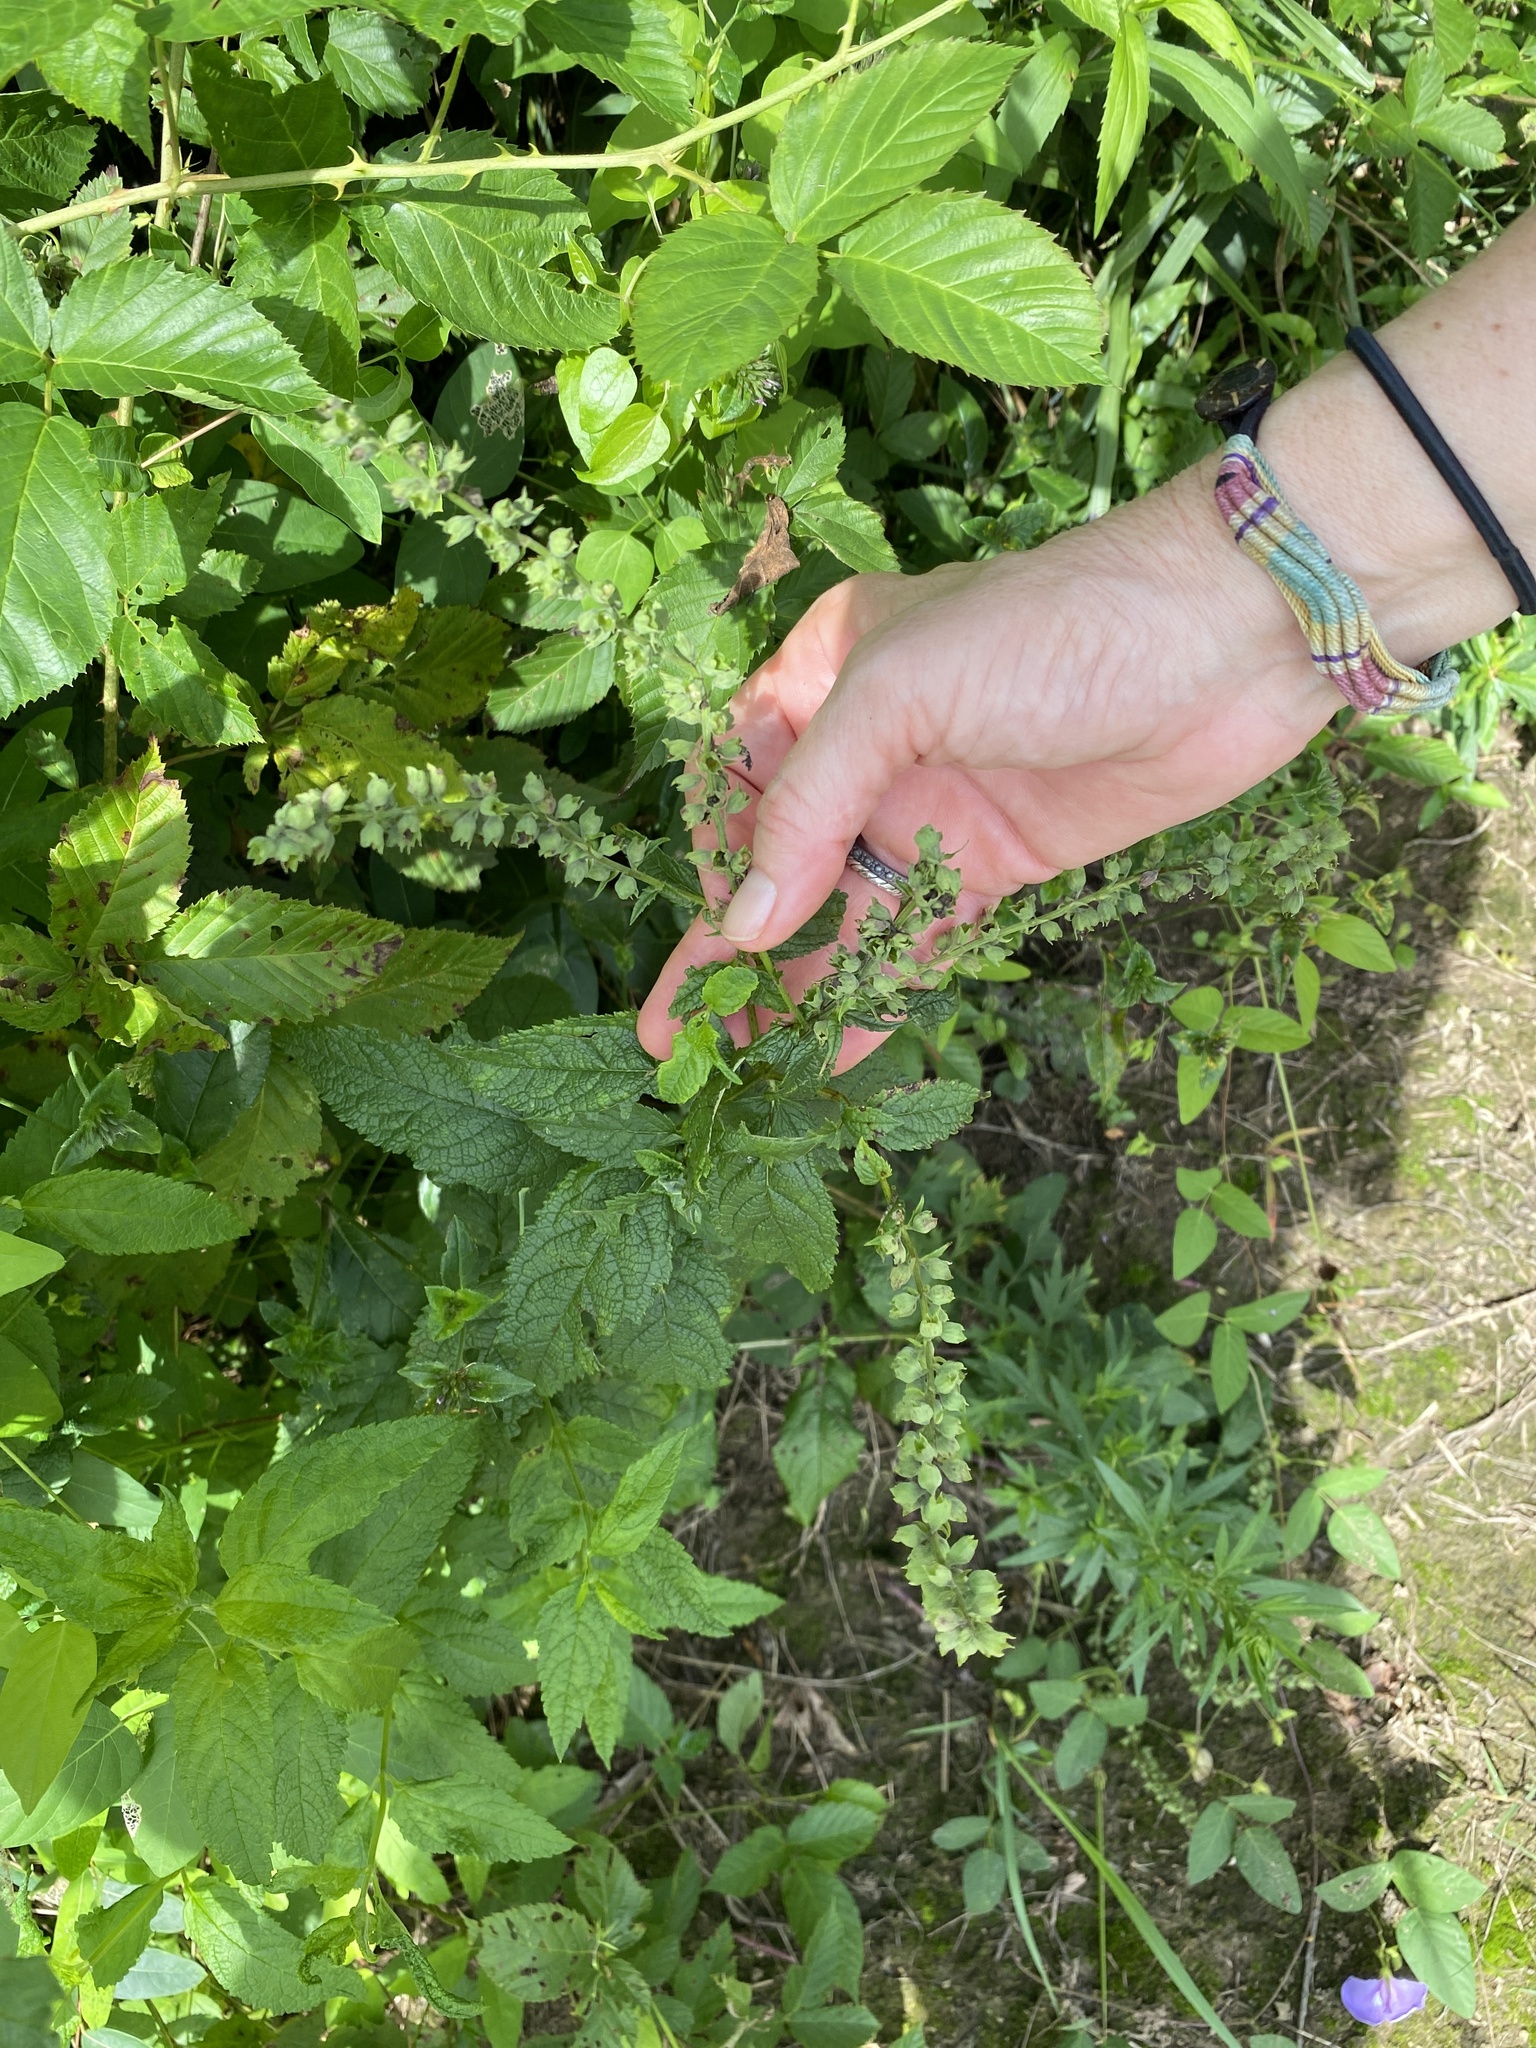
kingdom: Plantae
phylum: Tracheophyta
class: Magnoliopsida
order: Lamiales
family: Lamiaceae
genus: Teucrium
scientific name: Teucrium canadense
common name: American germander
